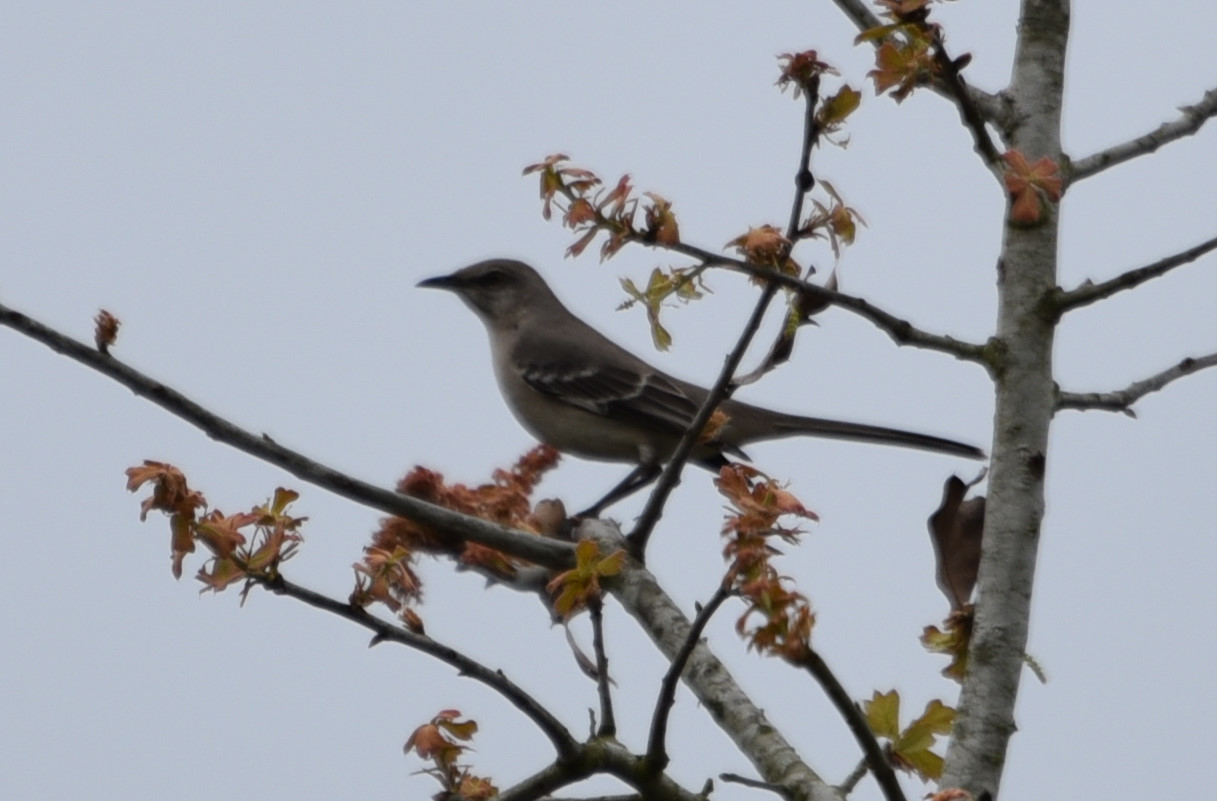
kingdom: Animalia
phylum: Chordata
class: Aves
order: Passeriformes
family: Mimidae
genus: Mimus
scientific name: Mimus polyglottos
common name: Northern mockingbird
